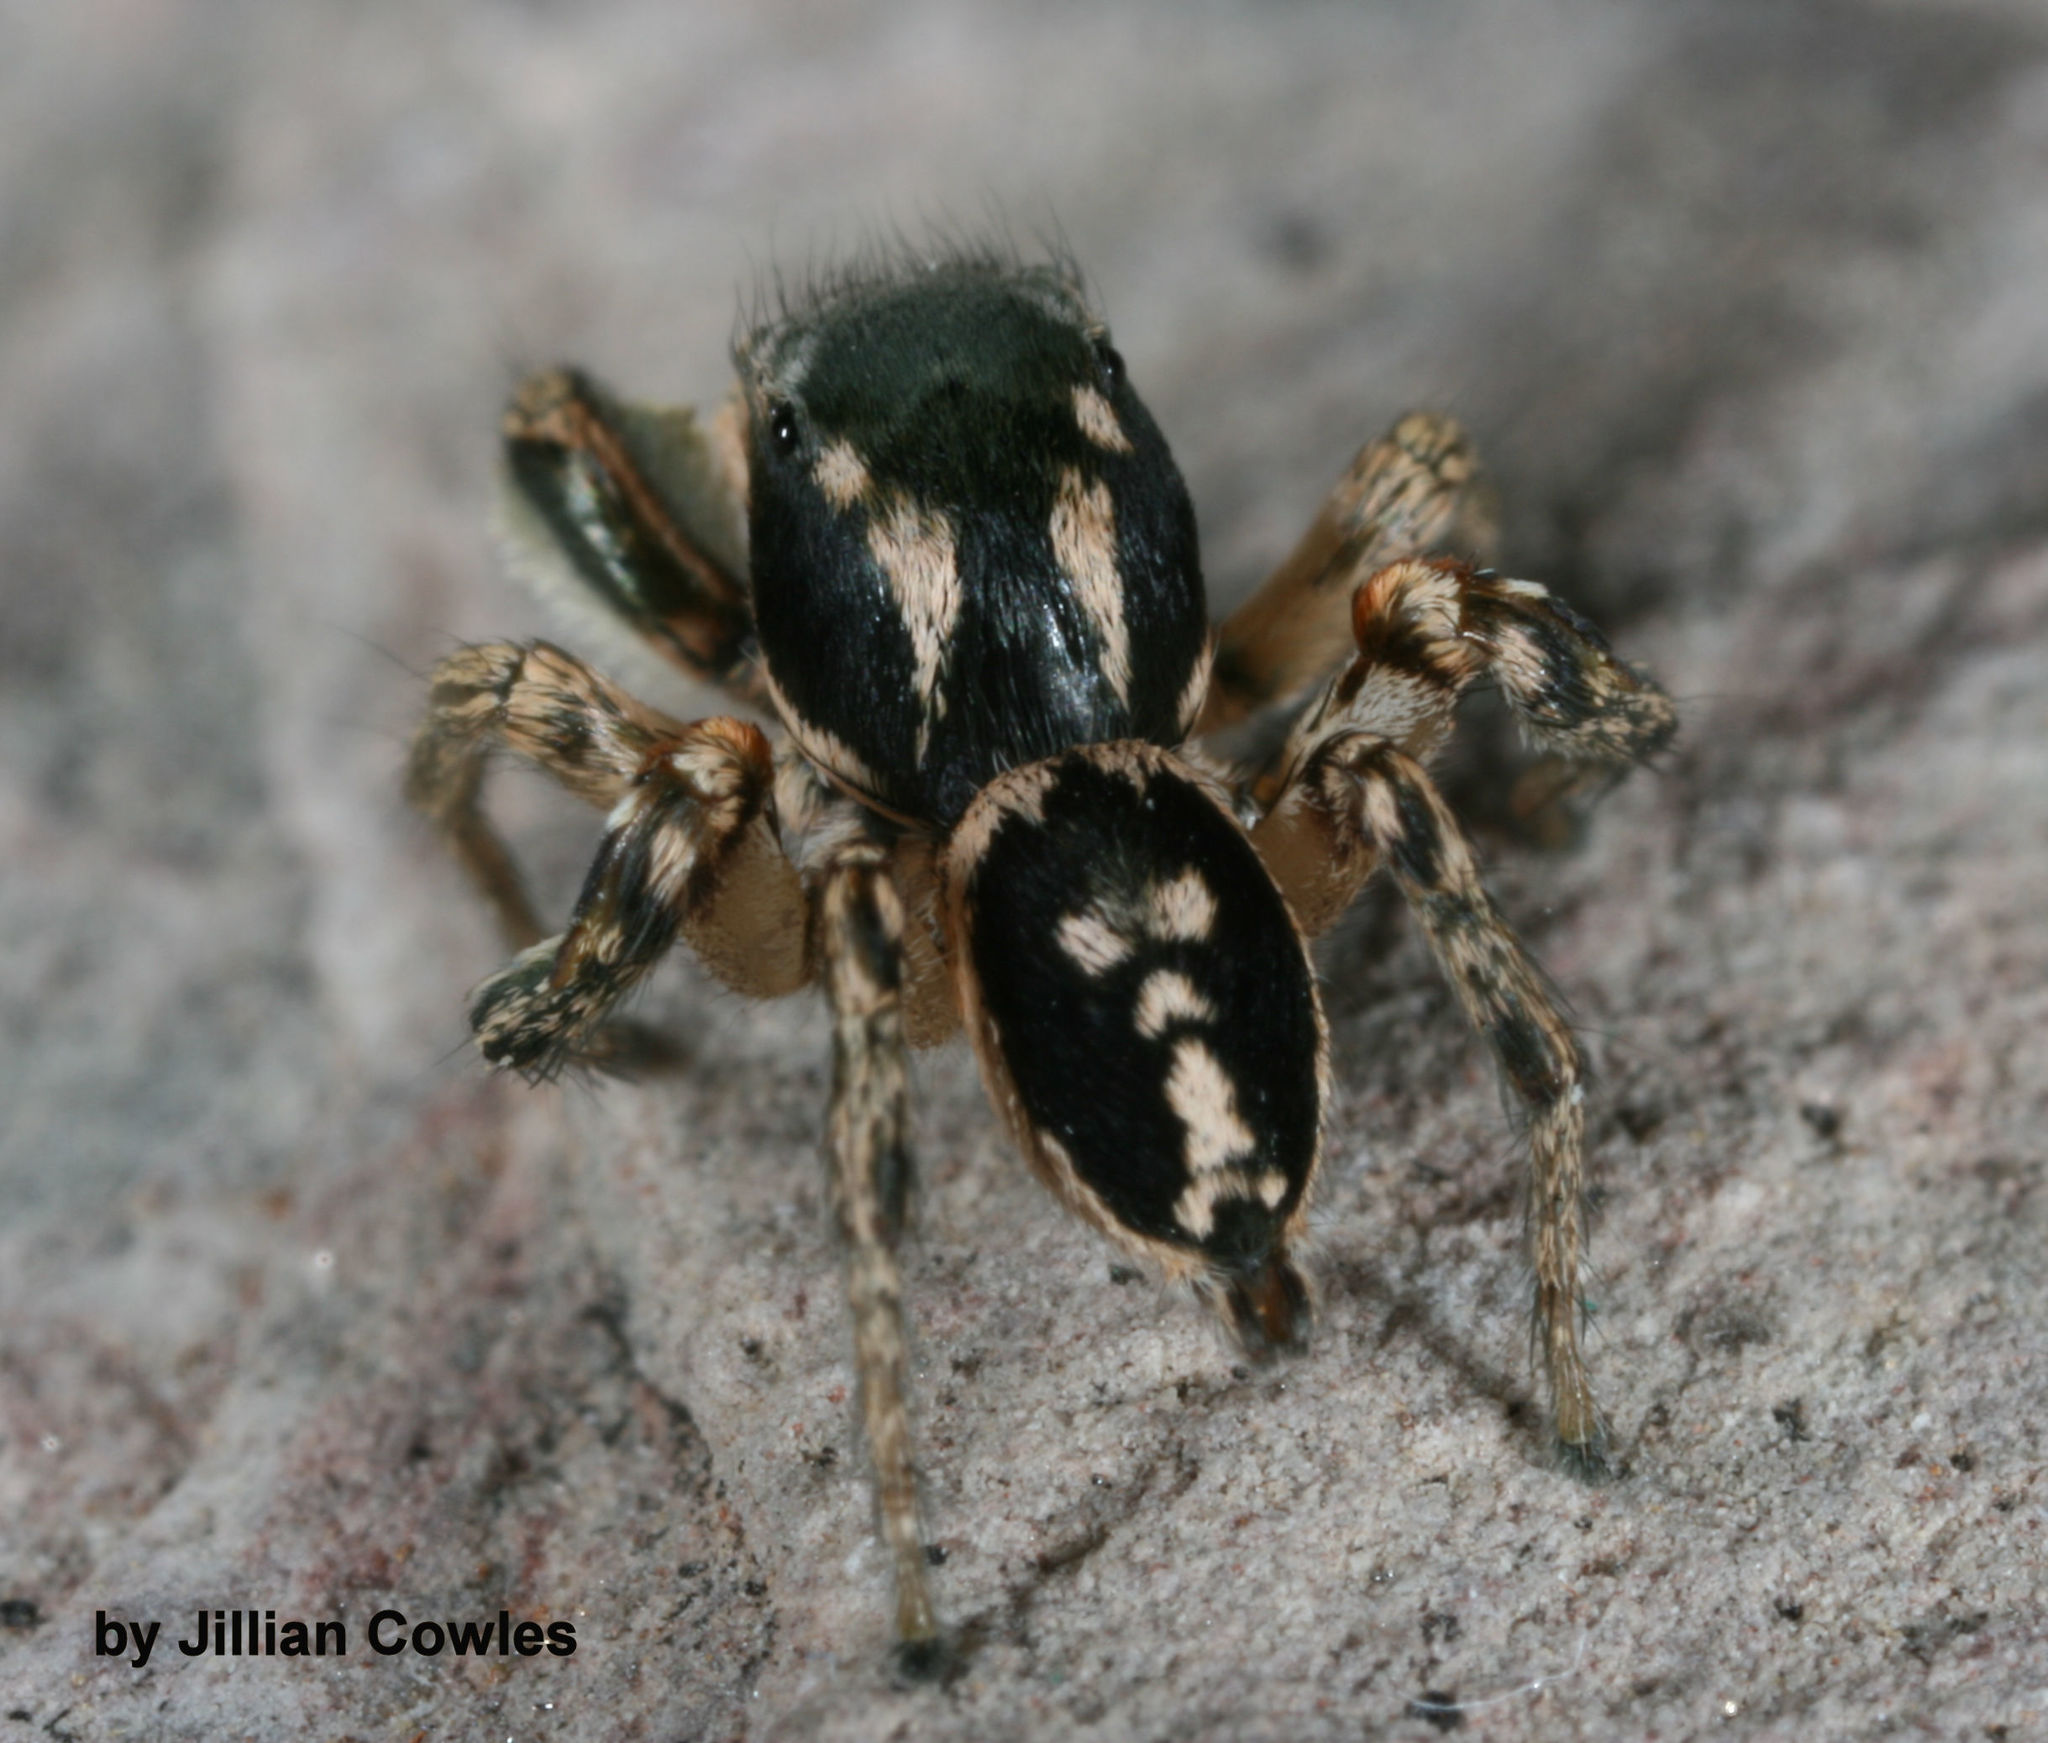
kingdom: Animalia
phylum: Arthropoda
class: Arachnida
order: Araneae
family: Salticidae
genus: Habronattus
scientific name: Habronattus pyrrithrix
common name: Jumping spider
